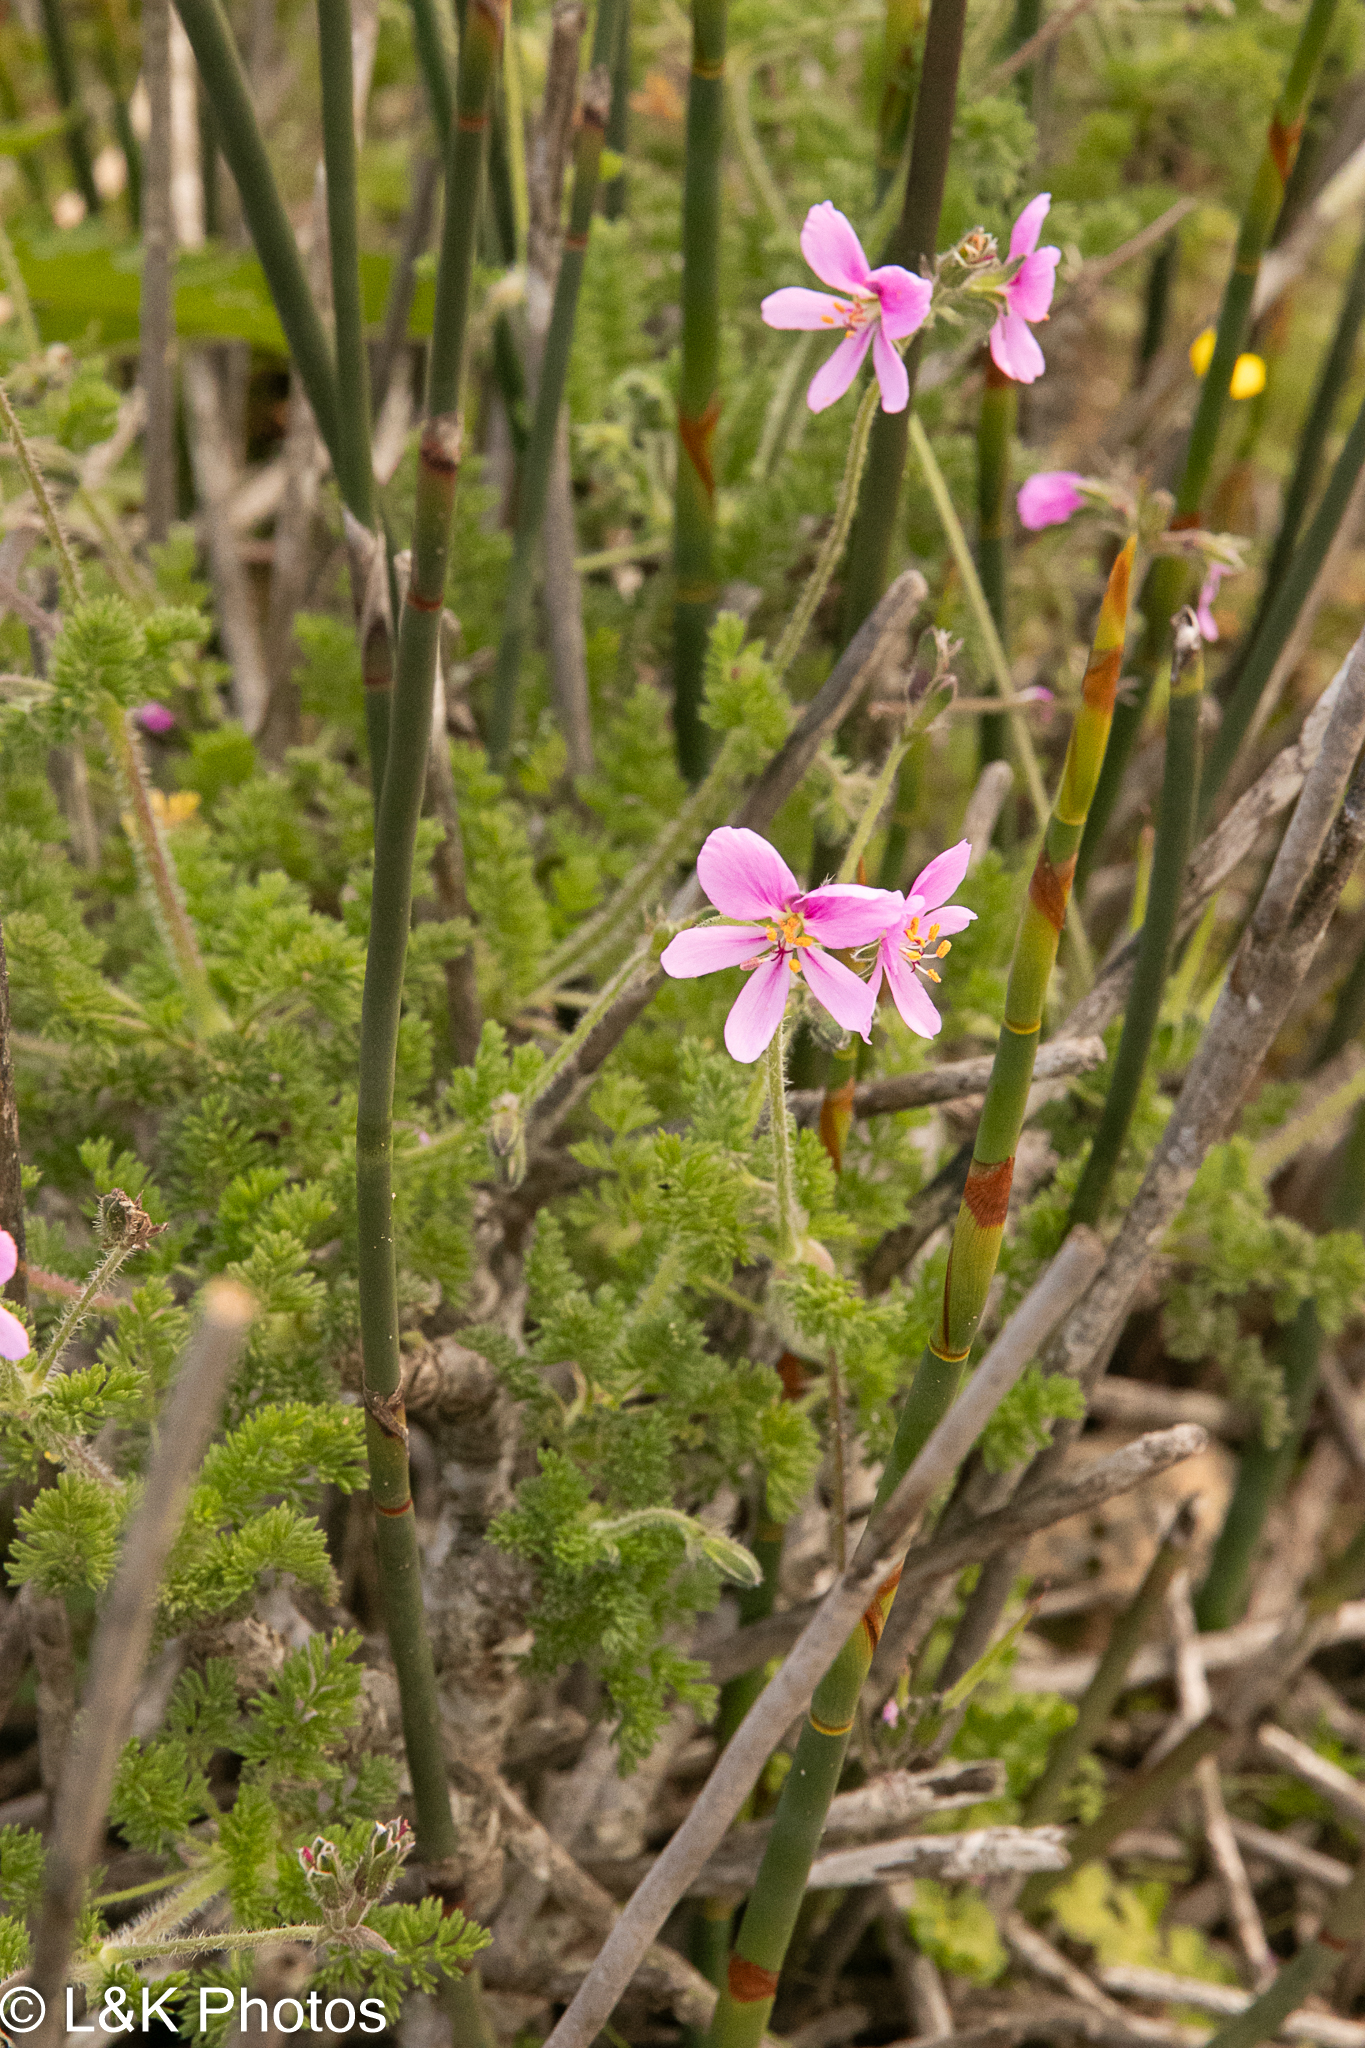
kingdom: Plantae
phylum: Tracheophyta
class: Magnoliopsida
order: Geraniales
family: Geraniaceae
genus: Pelargonium
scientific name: Pelargonium hirtum
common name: Fine-leaf pelargonium
